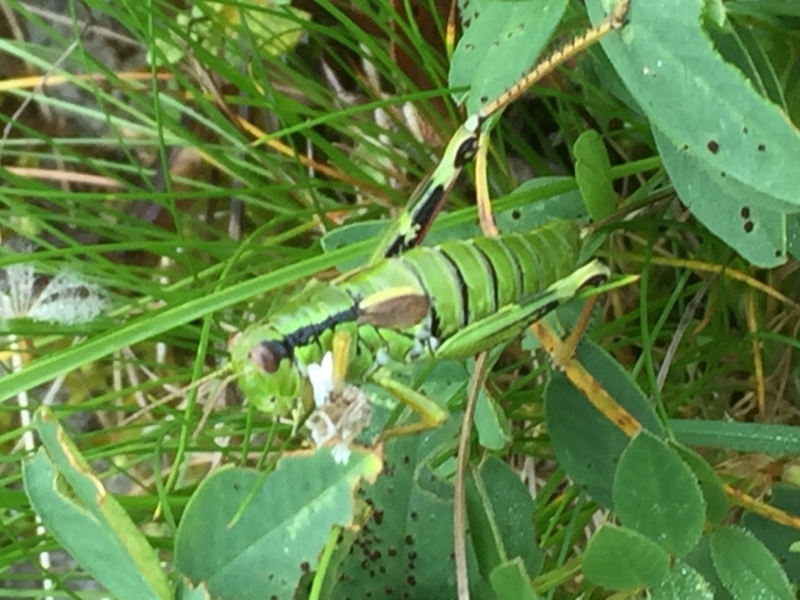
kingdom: Animalia
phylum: Arthropoda
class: Insecta
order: Orthoptera
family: Acrididae
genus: Miramella
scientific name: Miramella alpina
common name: Green mountain grasshopper
